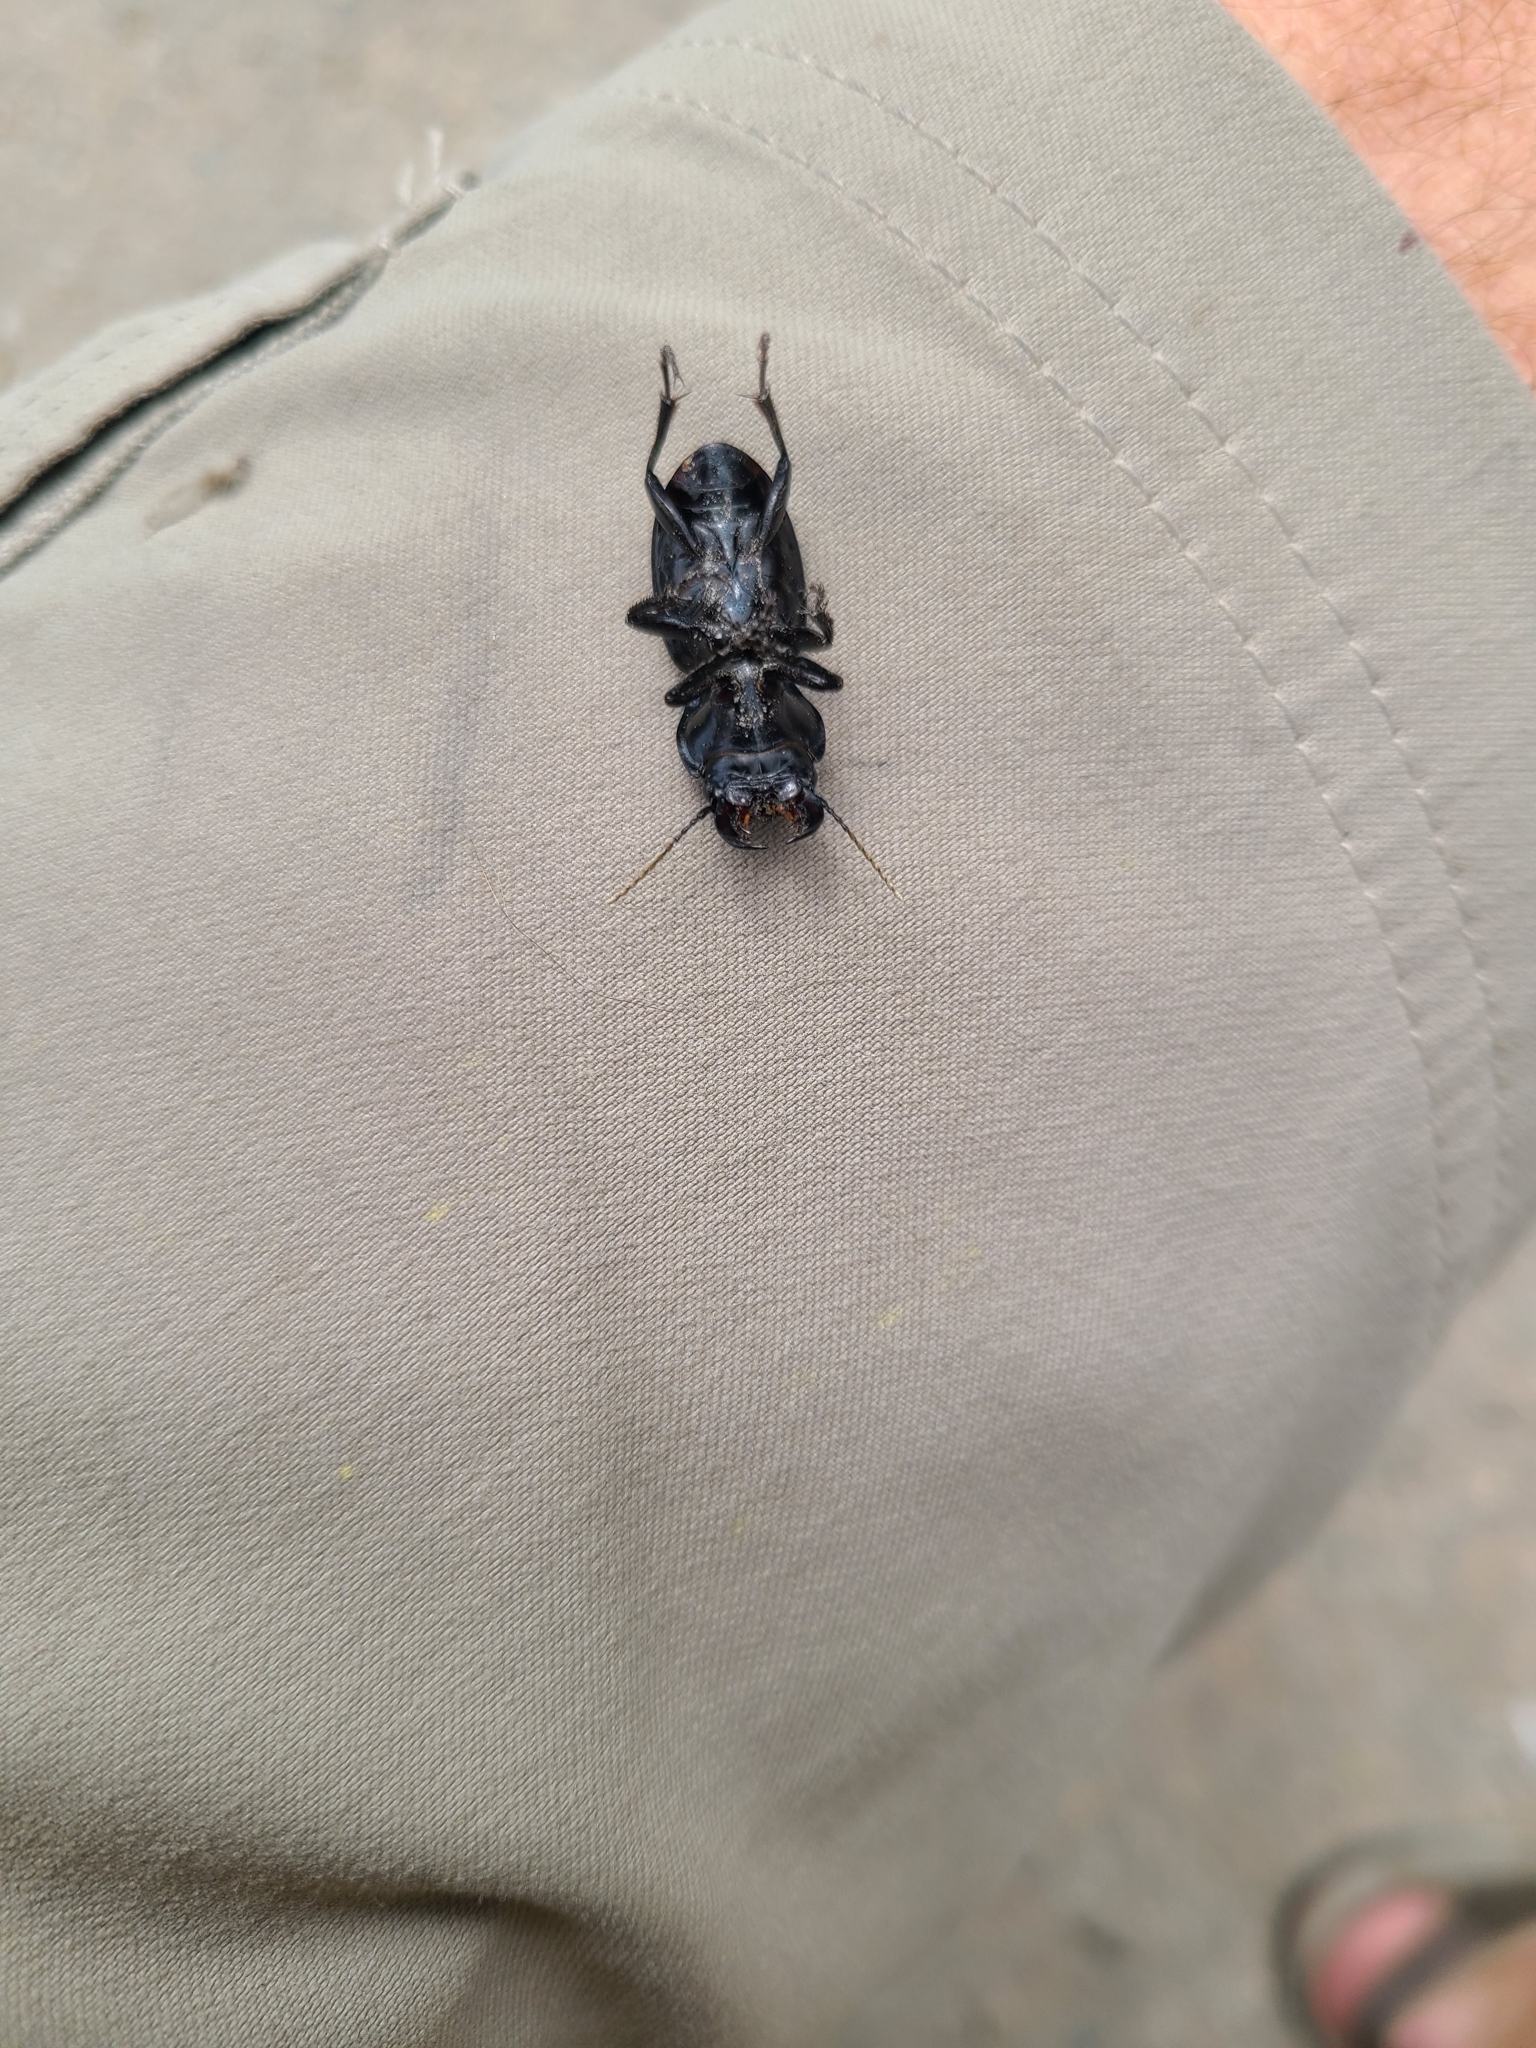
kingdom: Animalia
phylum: Arthropoda
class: Insecta
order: Coleoptera
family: Carabidae
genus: Pasimachus
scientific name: Pasimachus elongatus
